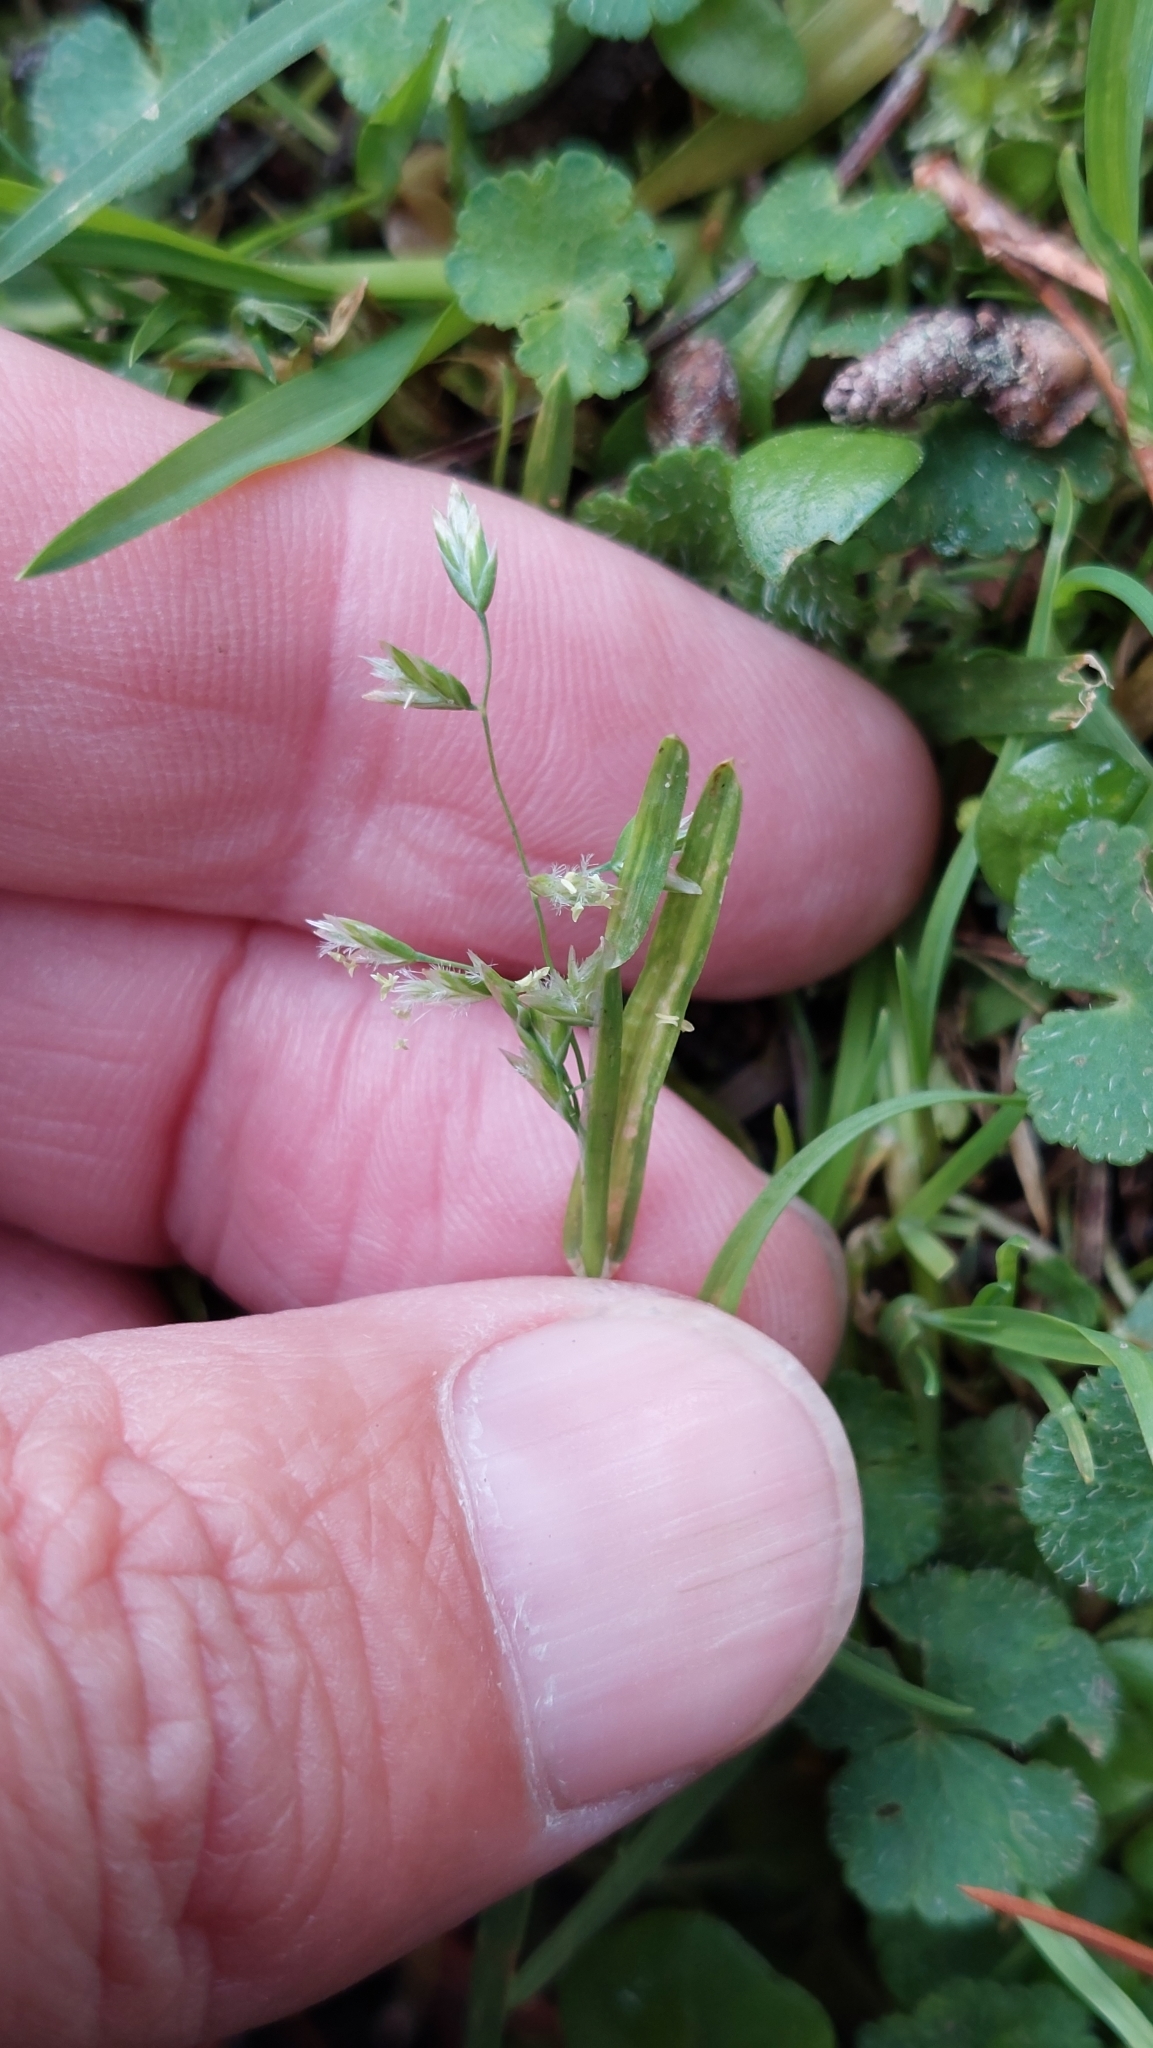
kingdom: Plantae
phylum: Tracheophyta
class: Liliopsida
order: Poales
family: Poaceae
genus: Poa
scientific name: Poa annua
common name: Annual bluegrass
